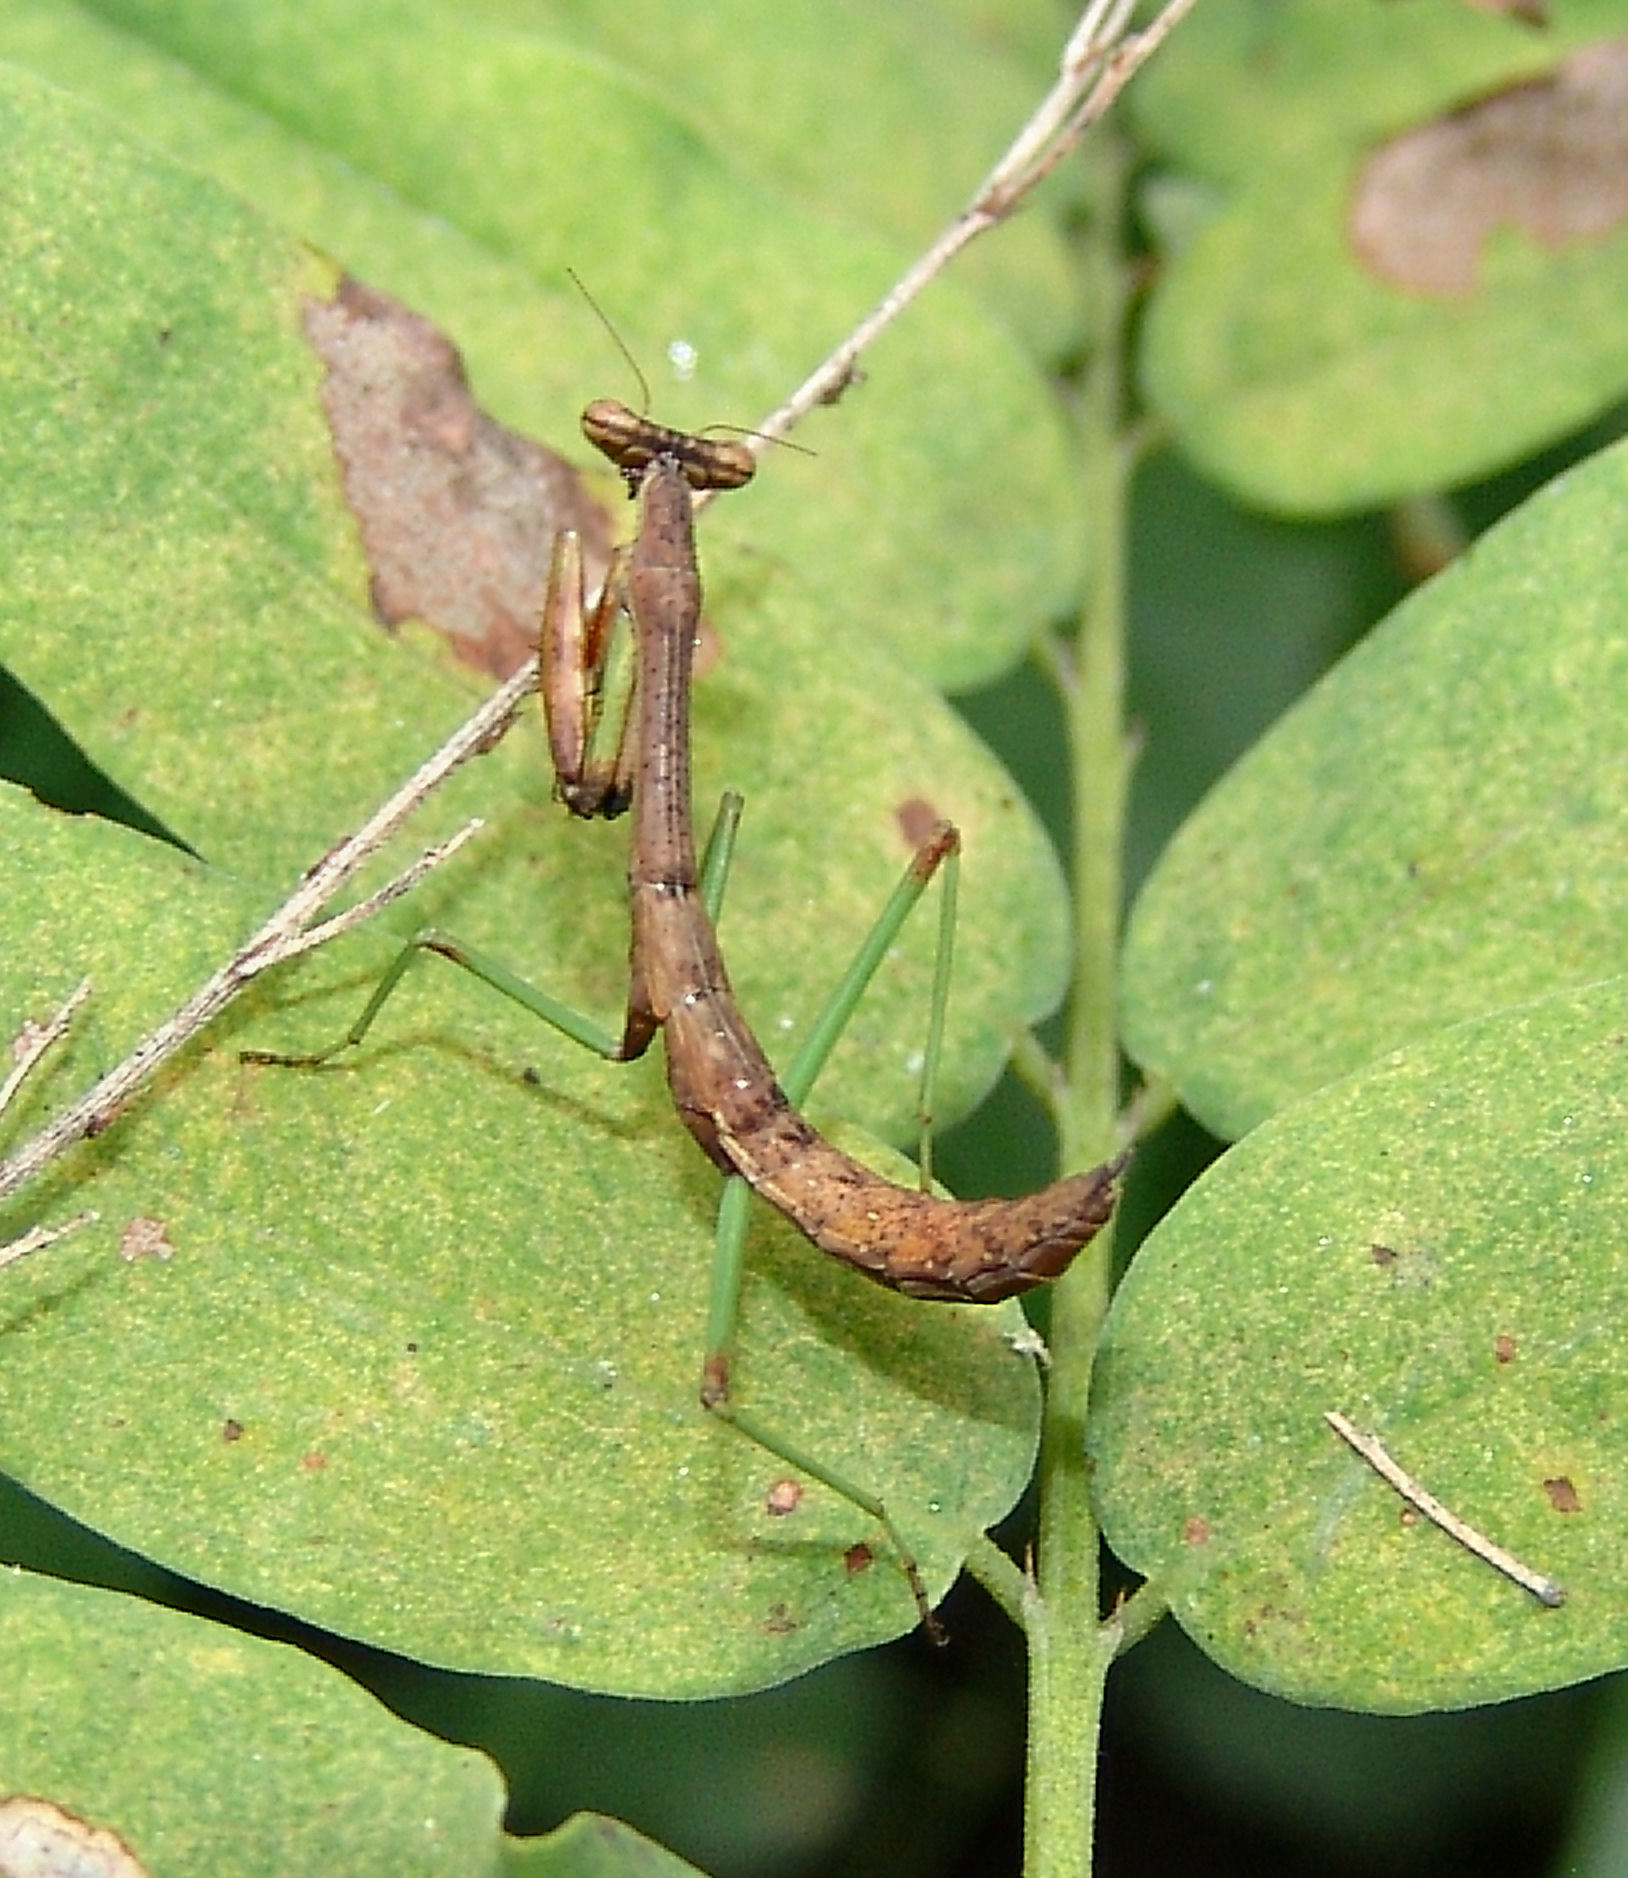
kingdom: Animalia
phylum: Arthropoda
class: Insecta
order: Mantodea
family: Mantidae
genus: Stagmomantis
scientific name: Stagmomantis carolina
